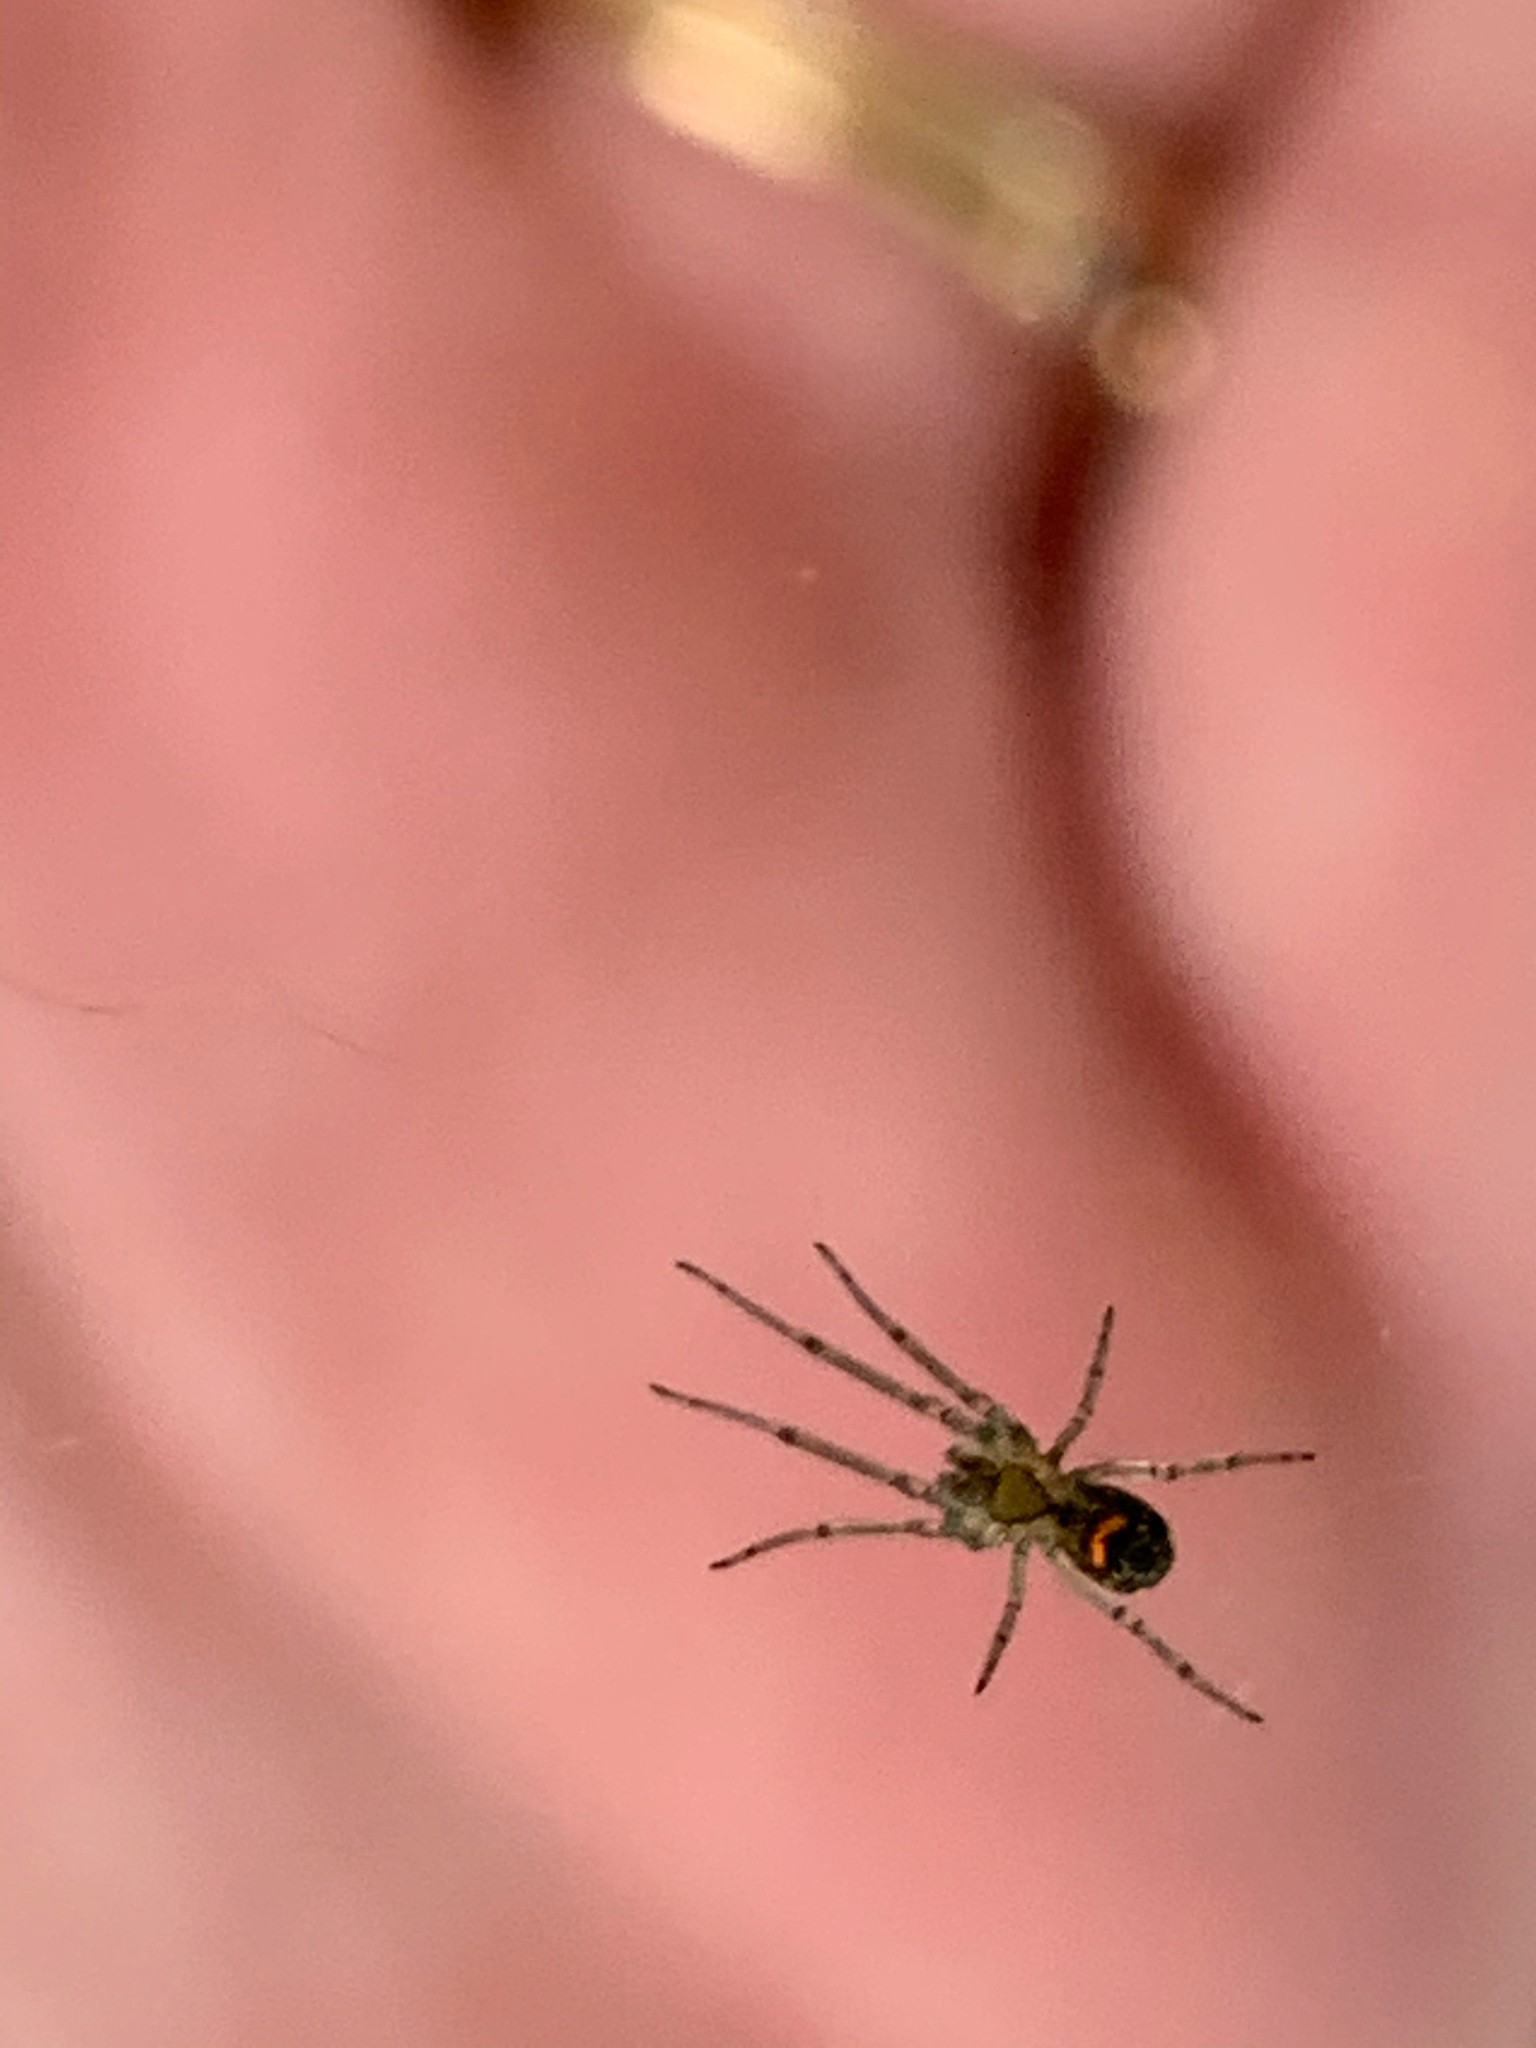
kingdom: Animalia
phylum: Arthropoda
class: Arachnida
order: Araneae
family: Tetragnathidae
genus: Leucauge
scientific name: Leucauge venusta
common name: Longjawed orb weavers
